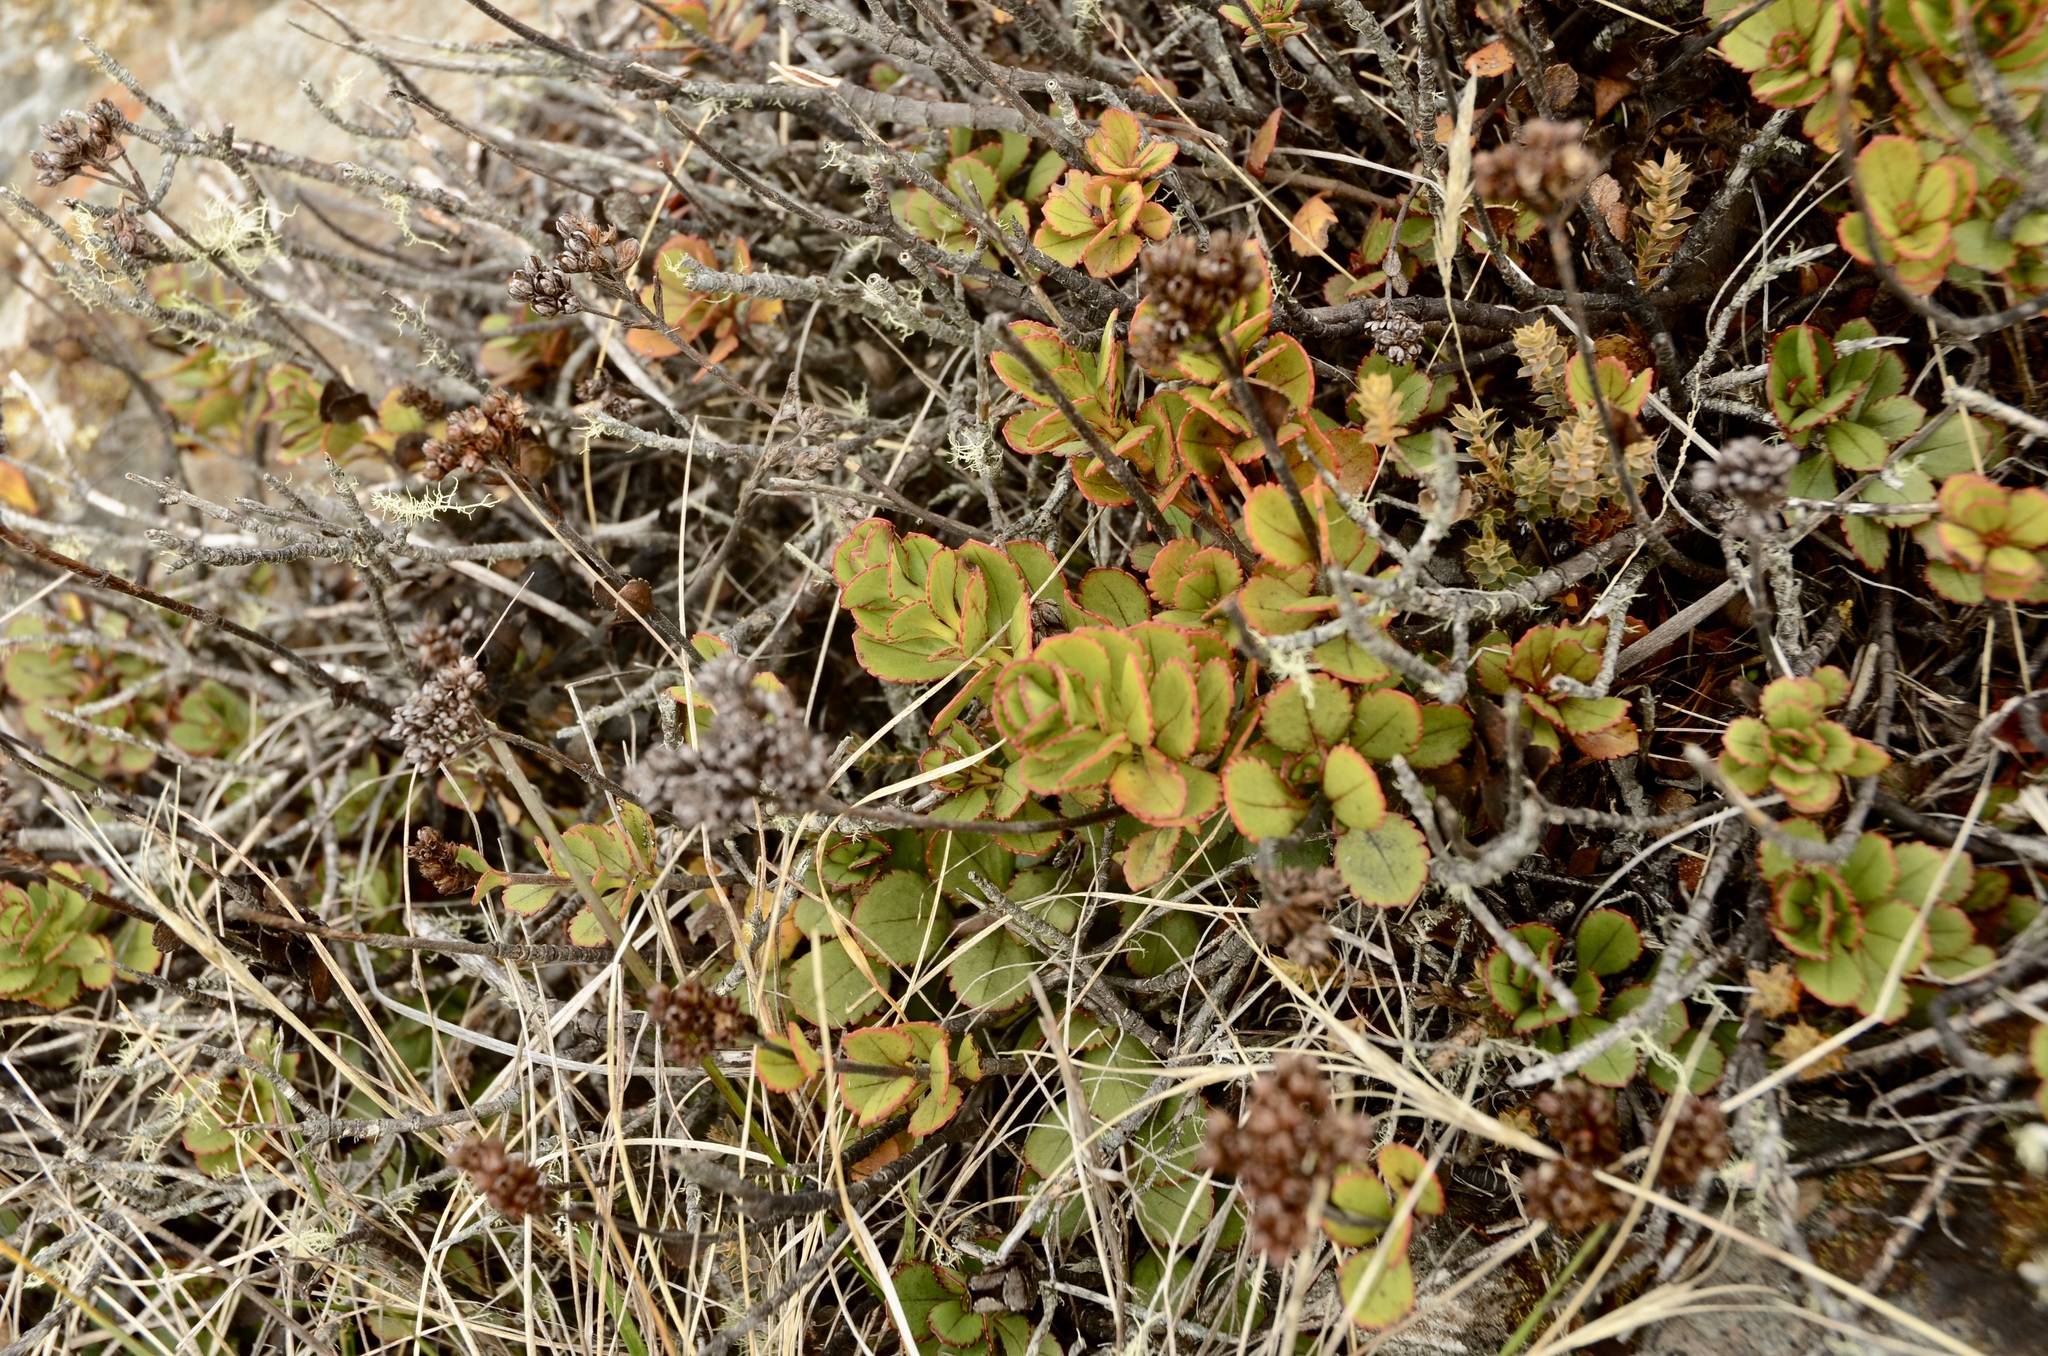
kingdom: Plantae
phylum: Tracheophyta
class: Magnoliopsida
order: Lamiales
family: Plantaginaceae
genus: Veronica
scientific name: Veronica lavaudiana
